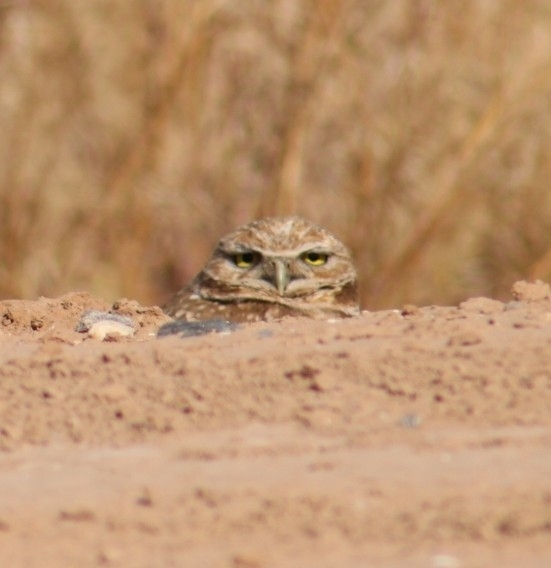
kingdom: Animalia
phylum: Chordata
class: Aves
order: Strigiformes
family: Strigidae
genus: Athene
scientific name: Athene cunicularia
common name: Burrowing owl
